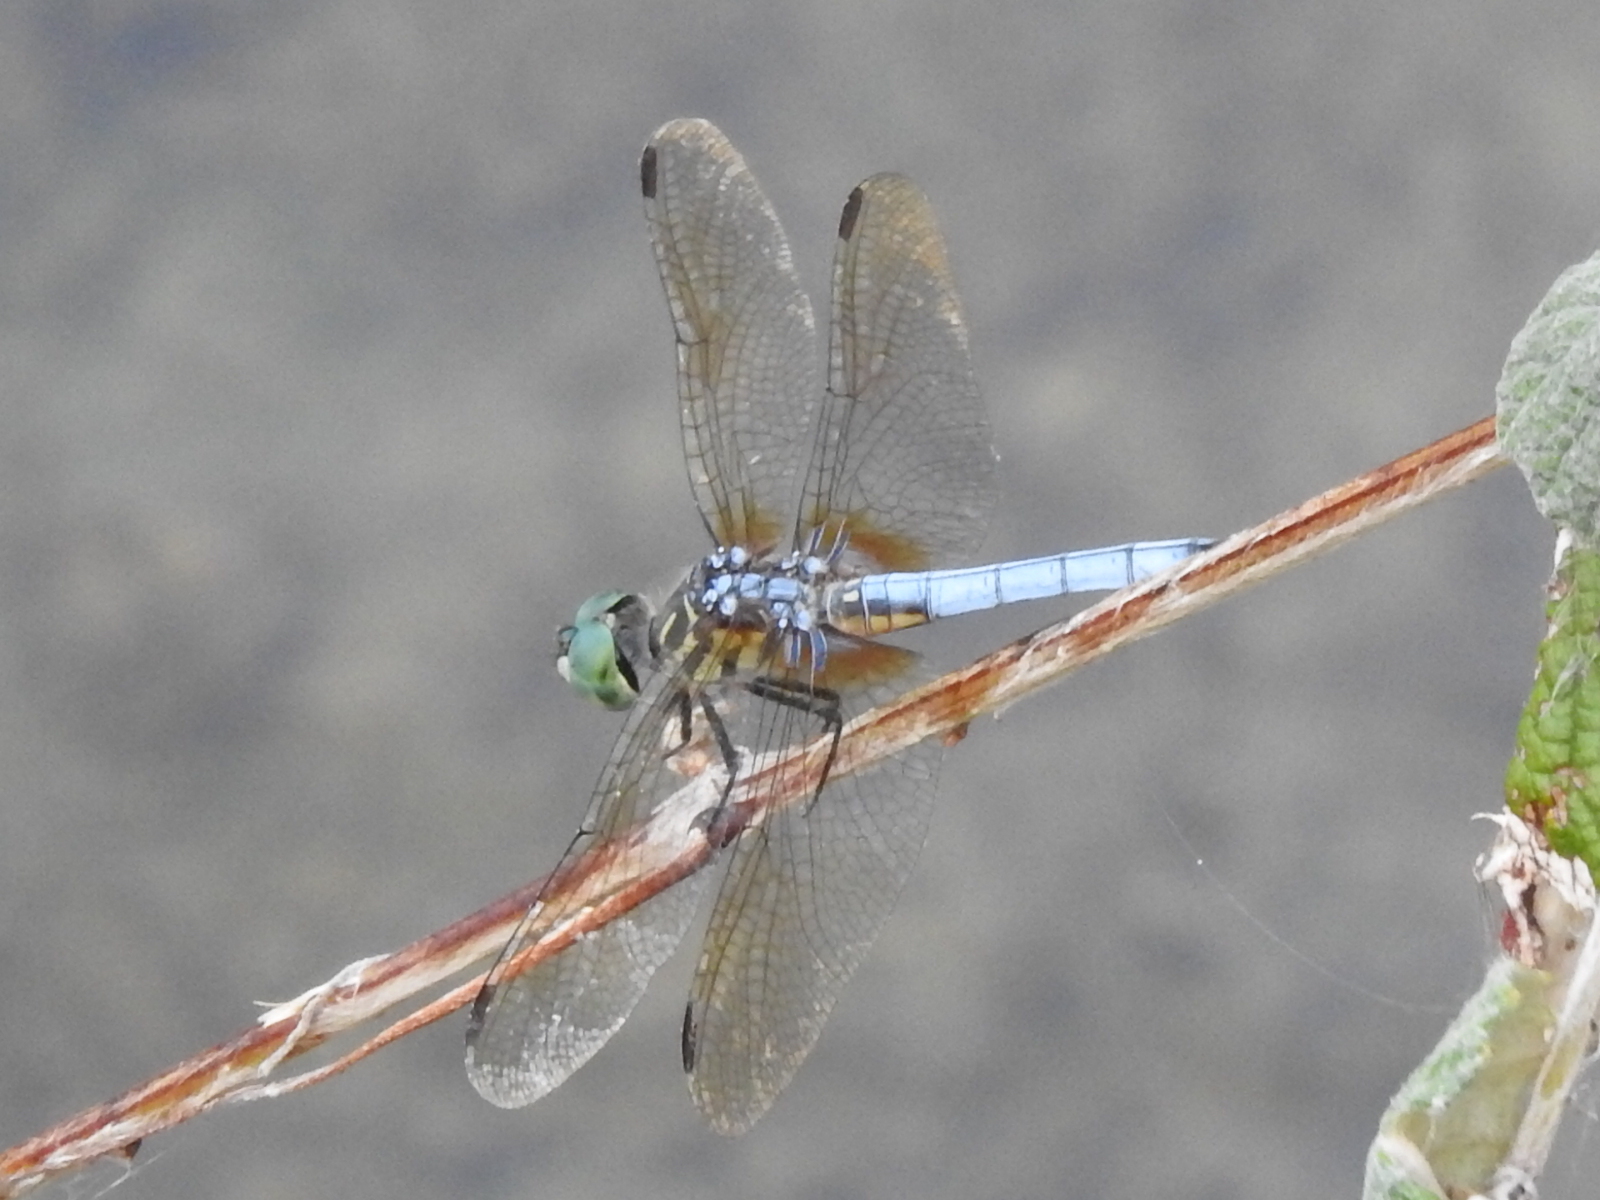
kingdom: Animalia
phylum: Arthropoda
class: Insecta
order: Odonata
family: Libellulidae
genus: Pachydiplax
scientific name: Pachydiplax longipennis
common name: Blue dasher
